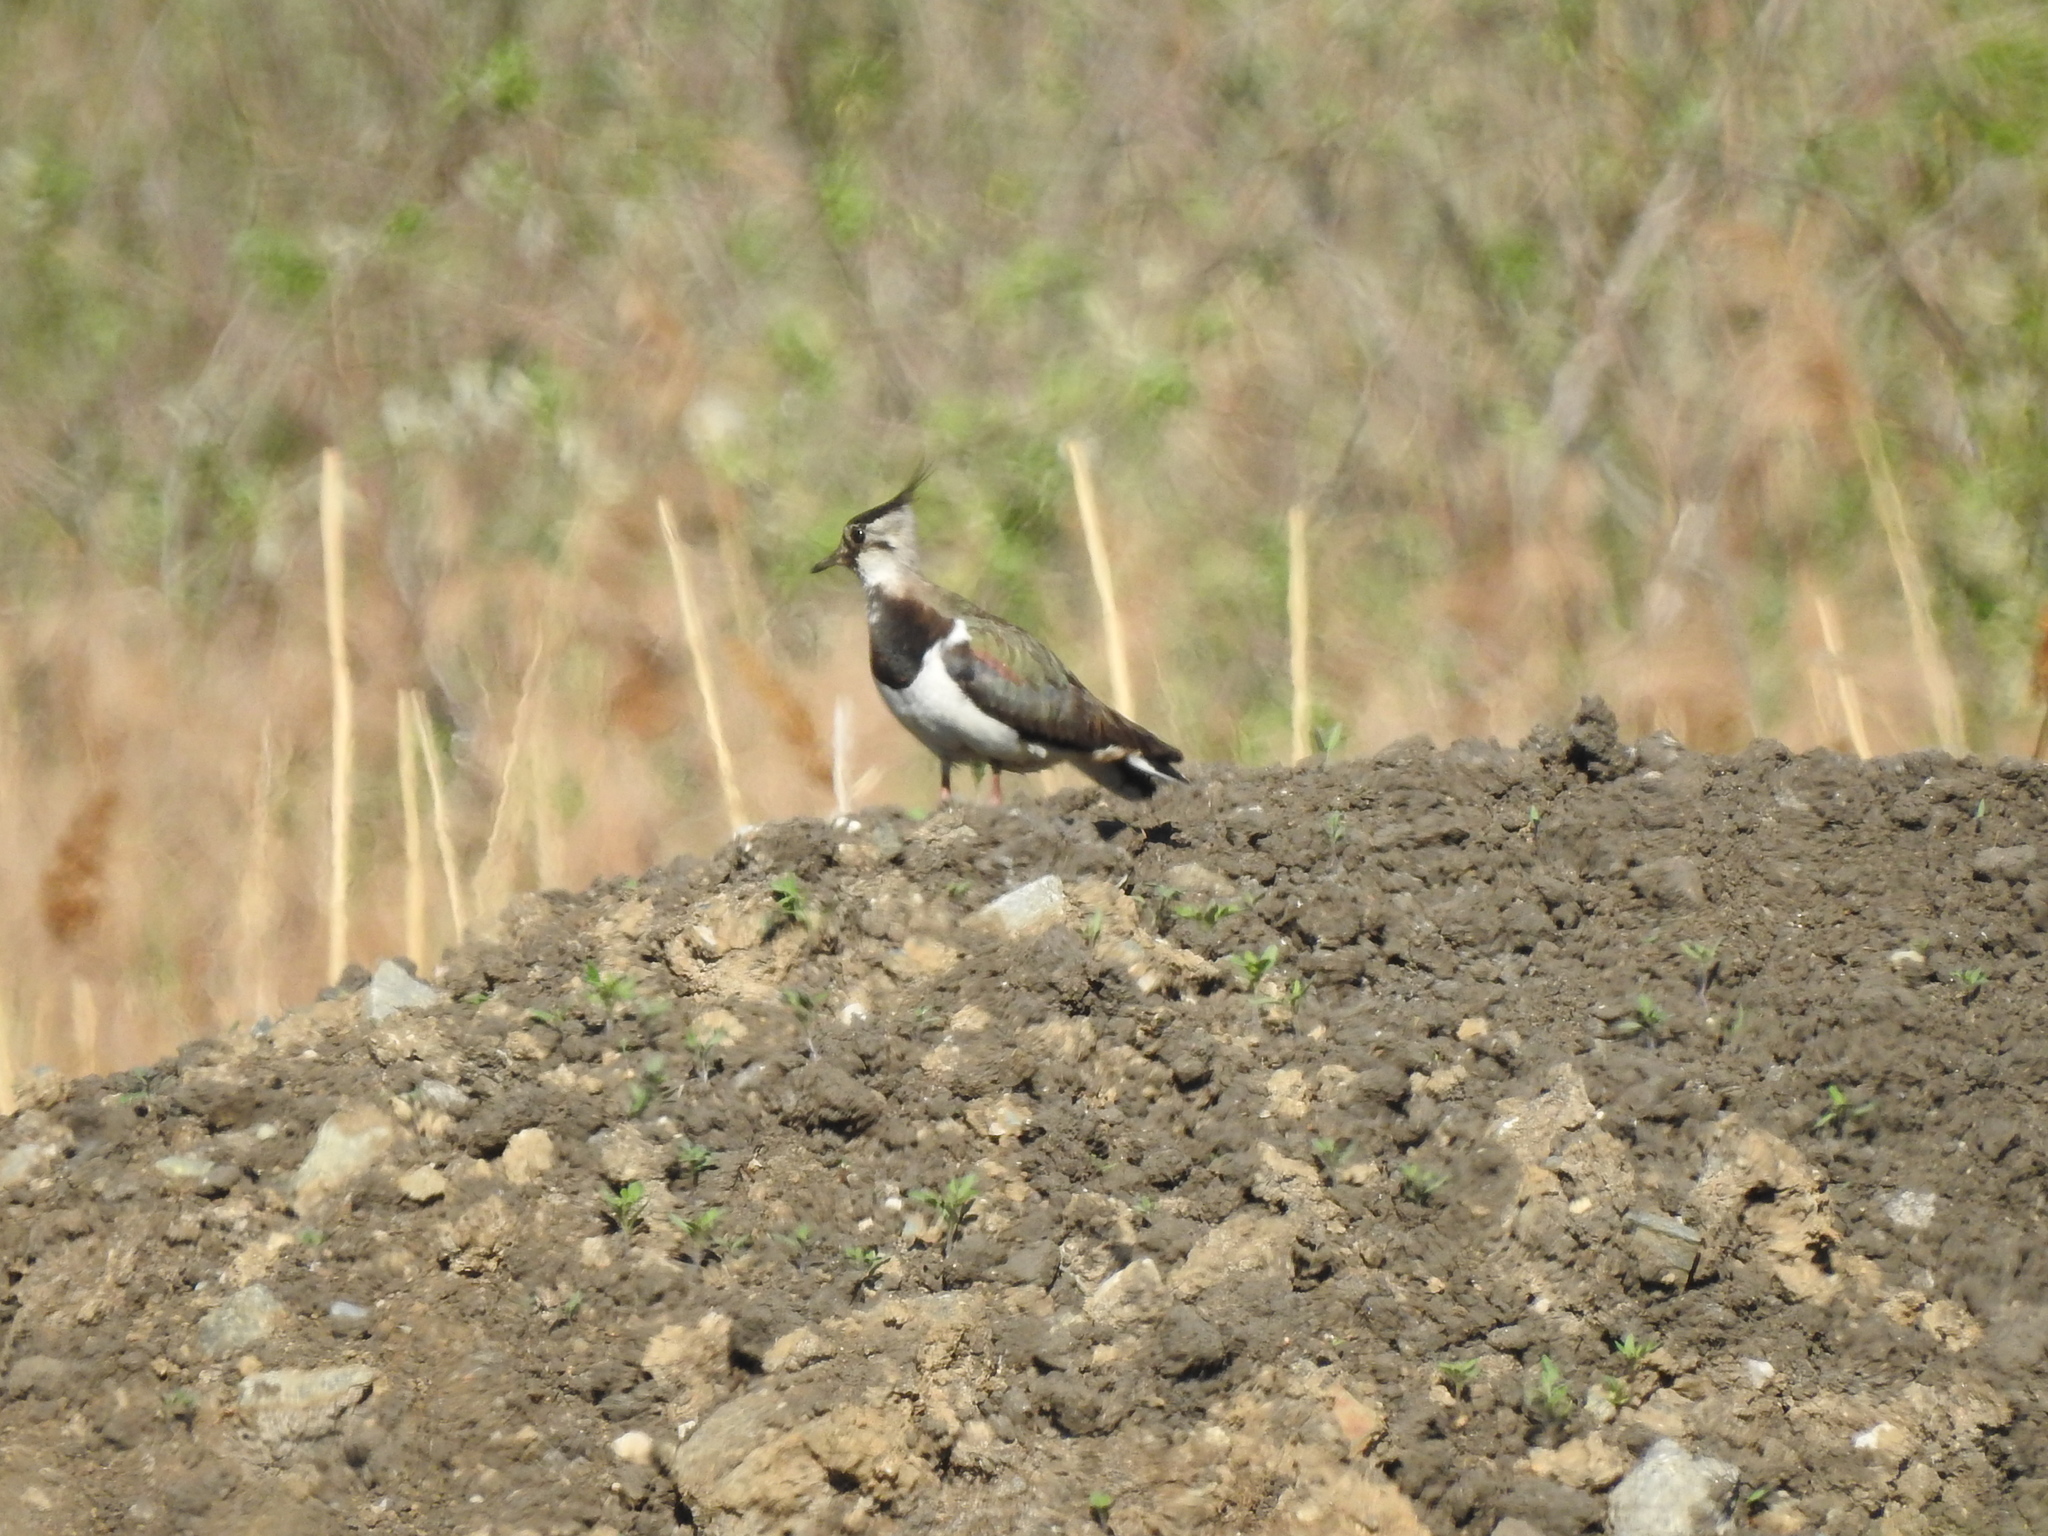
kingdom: Animalia
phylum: Chordata
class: Aves
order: Charadriiformes
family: Charadriidae
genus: Vanellus
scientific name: Vanellus vanellus
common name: Northern lapwing
